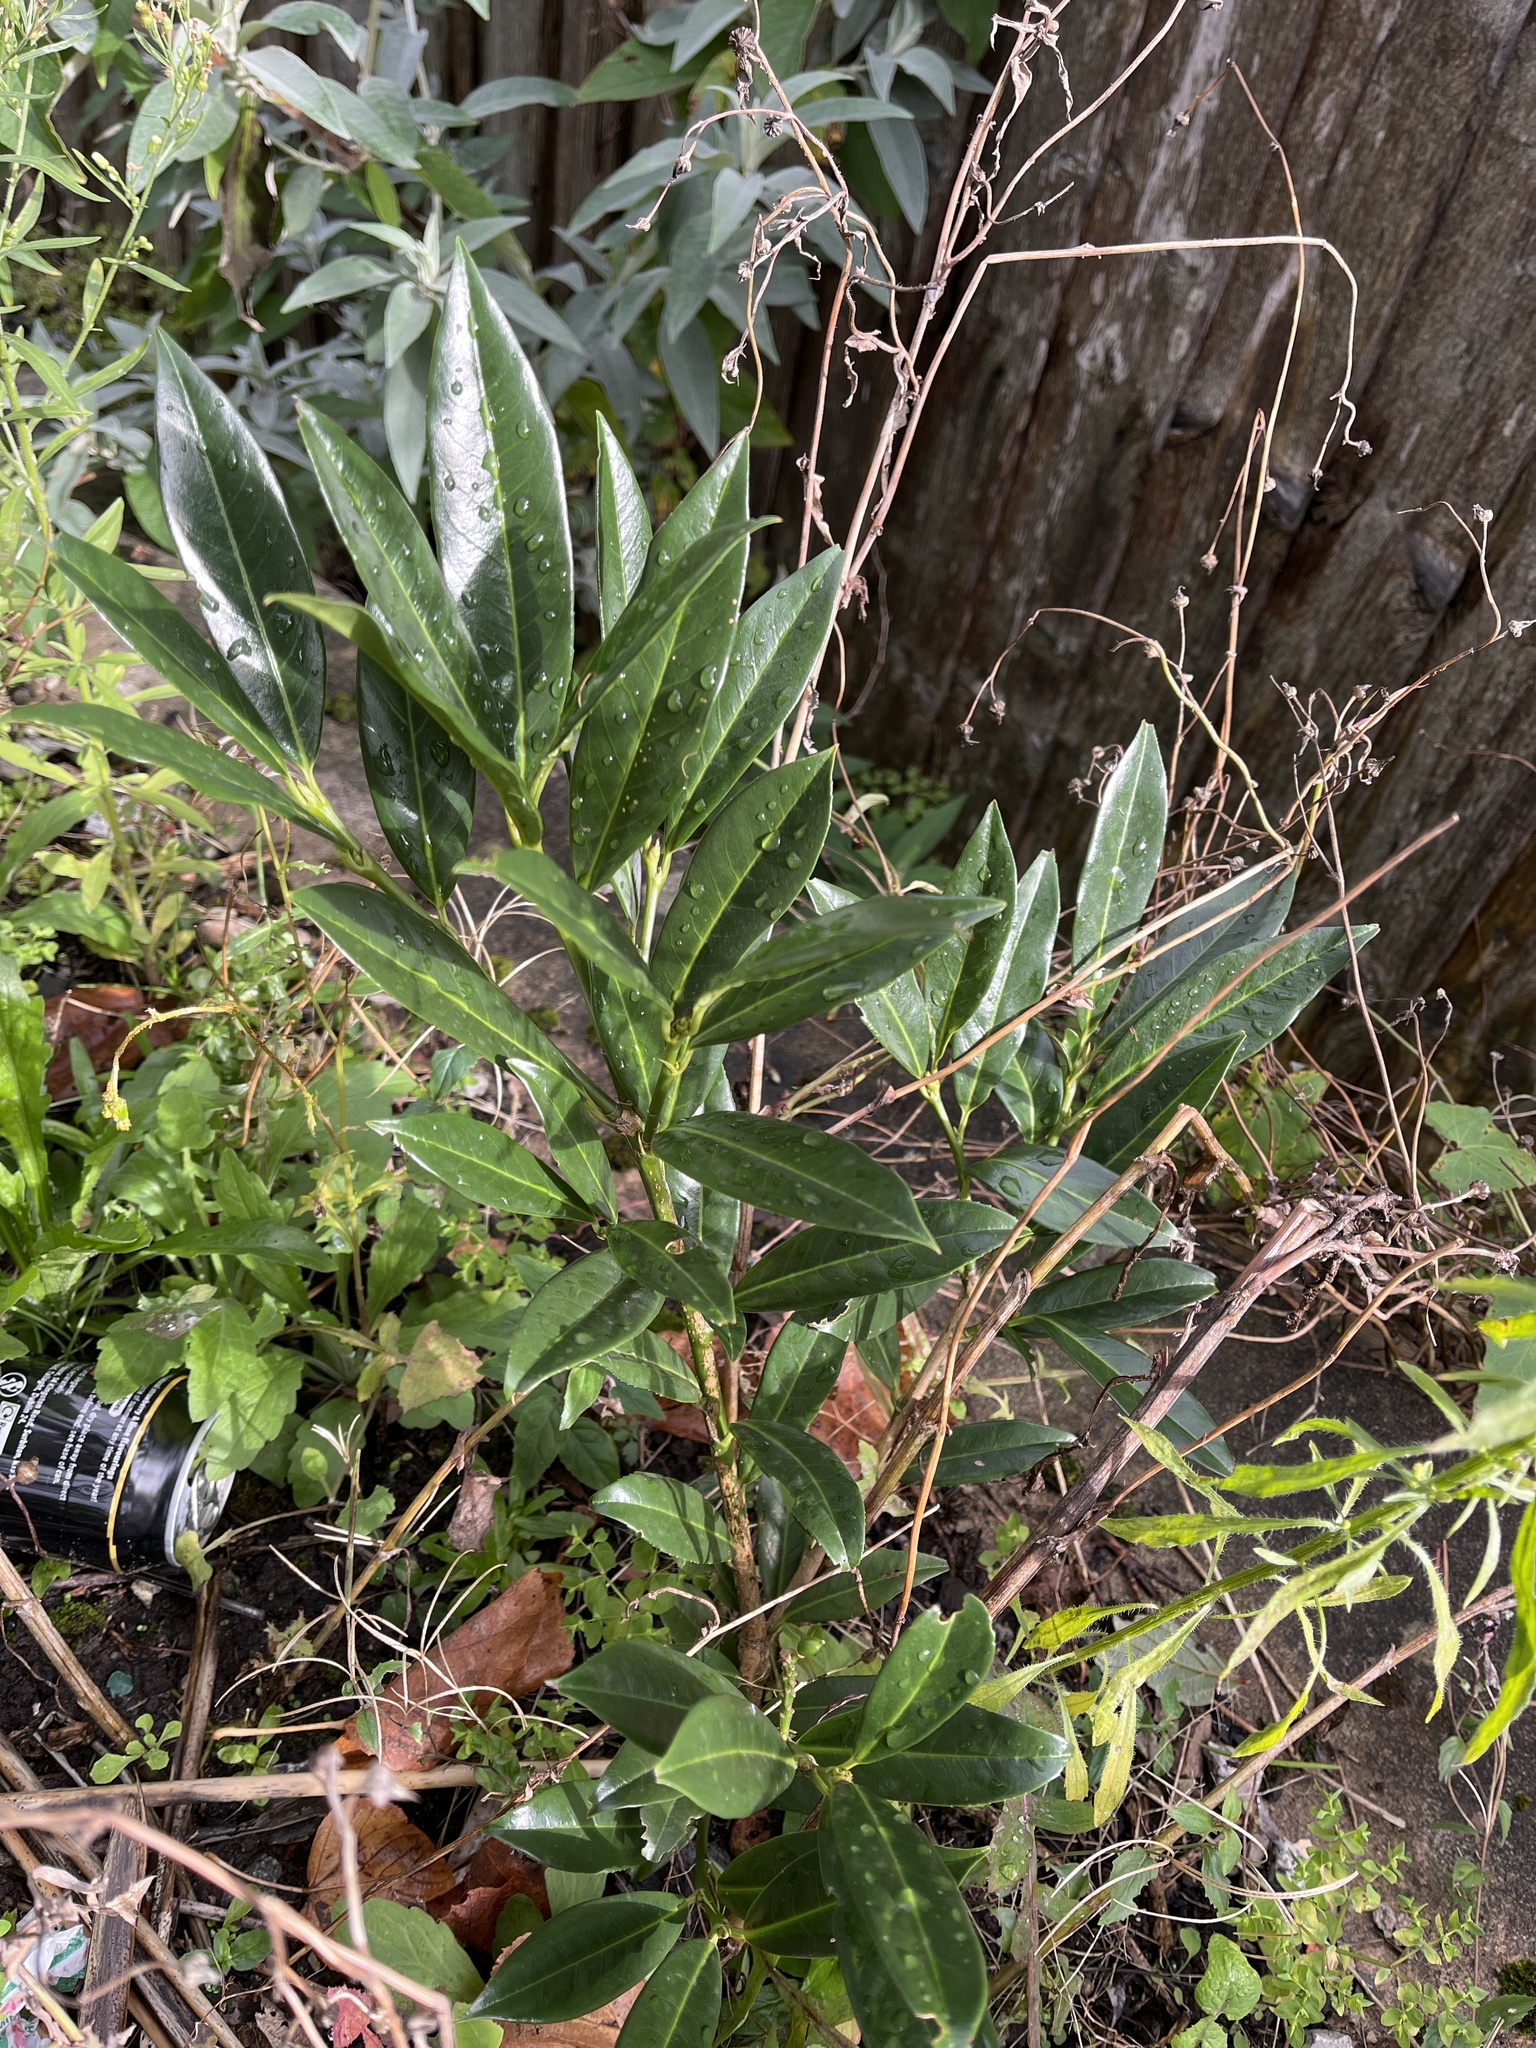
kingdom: Plantae
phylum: Tracheophyta
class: Magnoliopsida
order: Rosales
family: Rosaceae
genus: Prunus
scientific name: Prunus laurocerasus
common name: Cherry laurel
